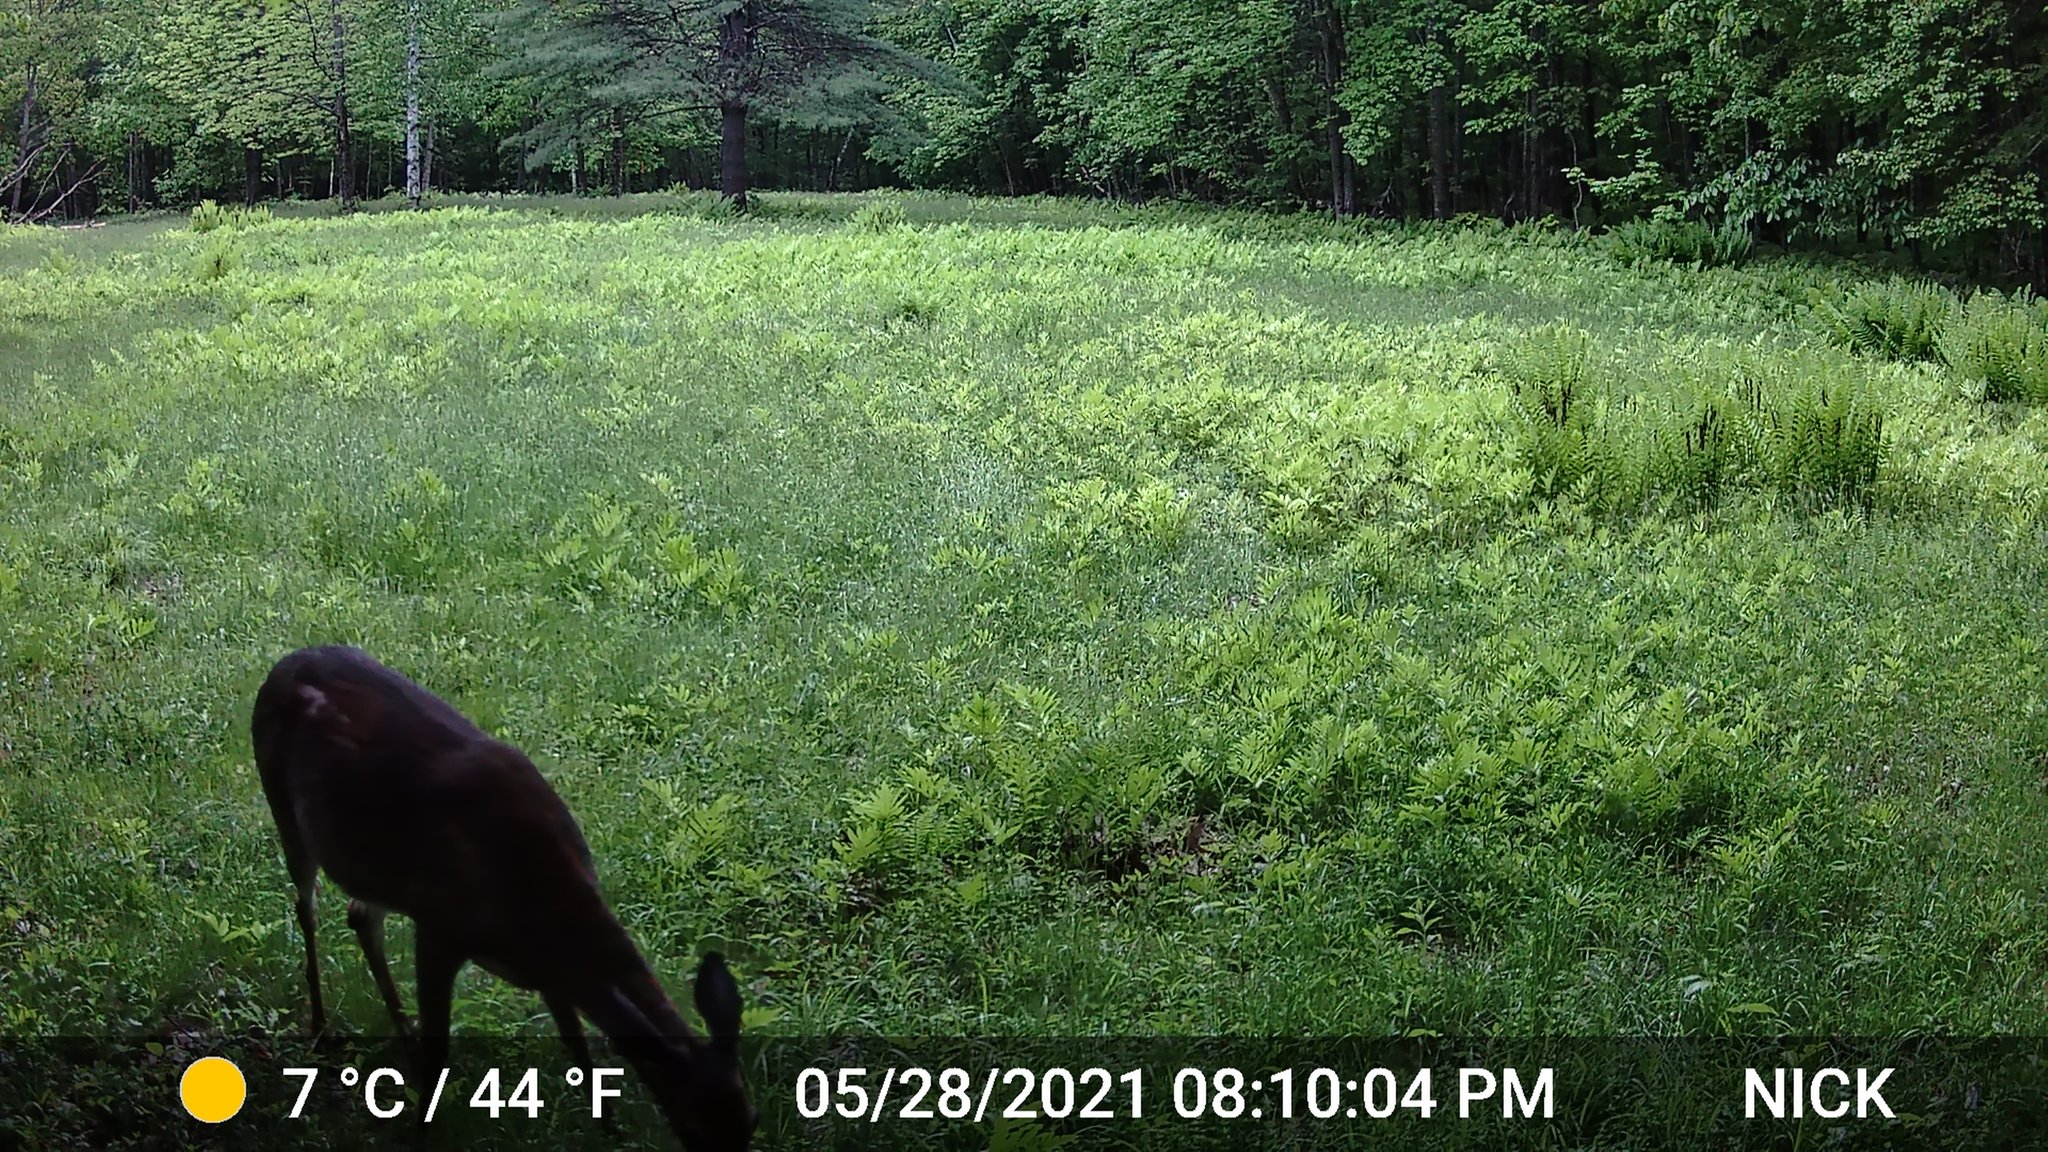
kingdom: Animalia
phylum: Chordata
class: Mammalia
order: Artiodactyla
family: Cervidae
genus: Odocoileus
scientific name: Odocoileus virginianus
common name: White-tailed deer
